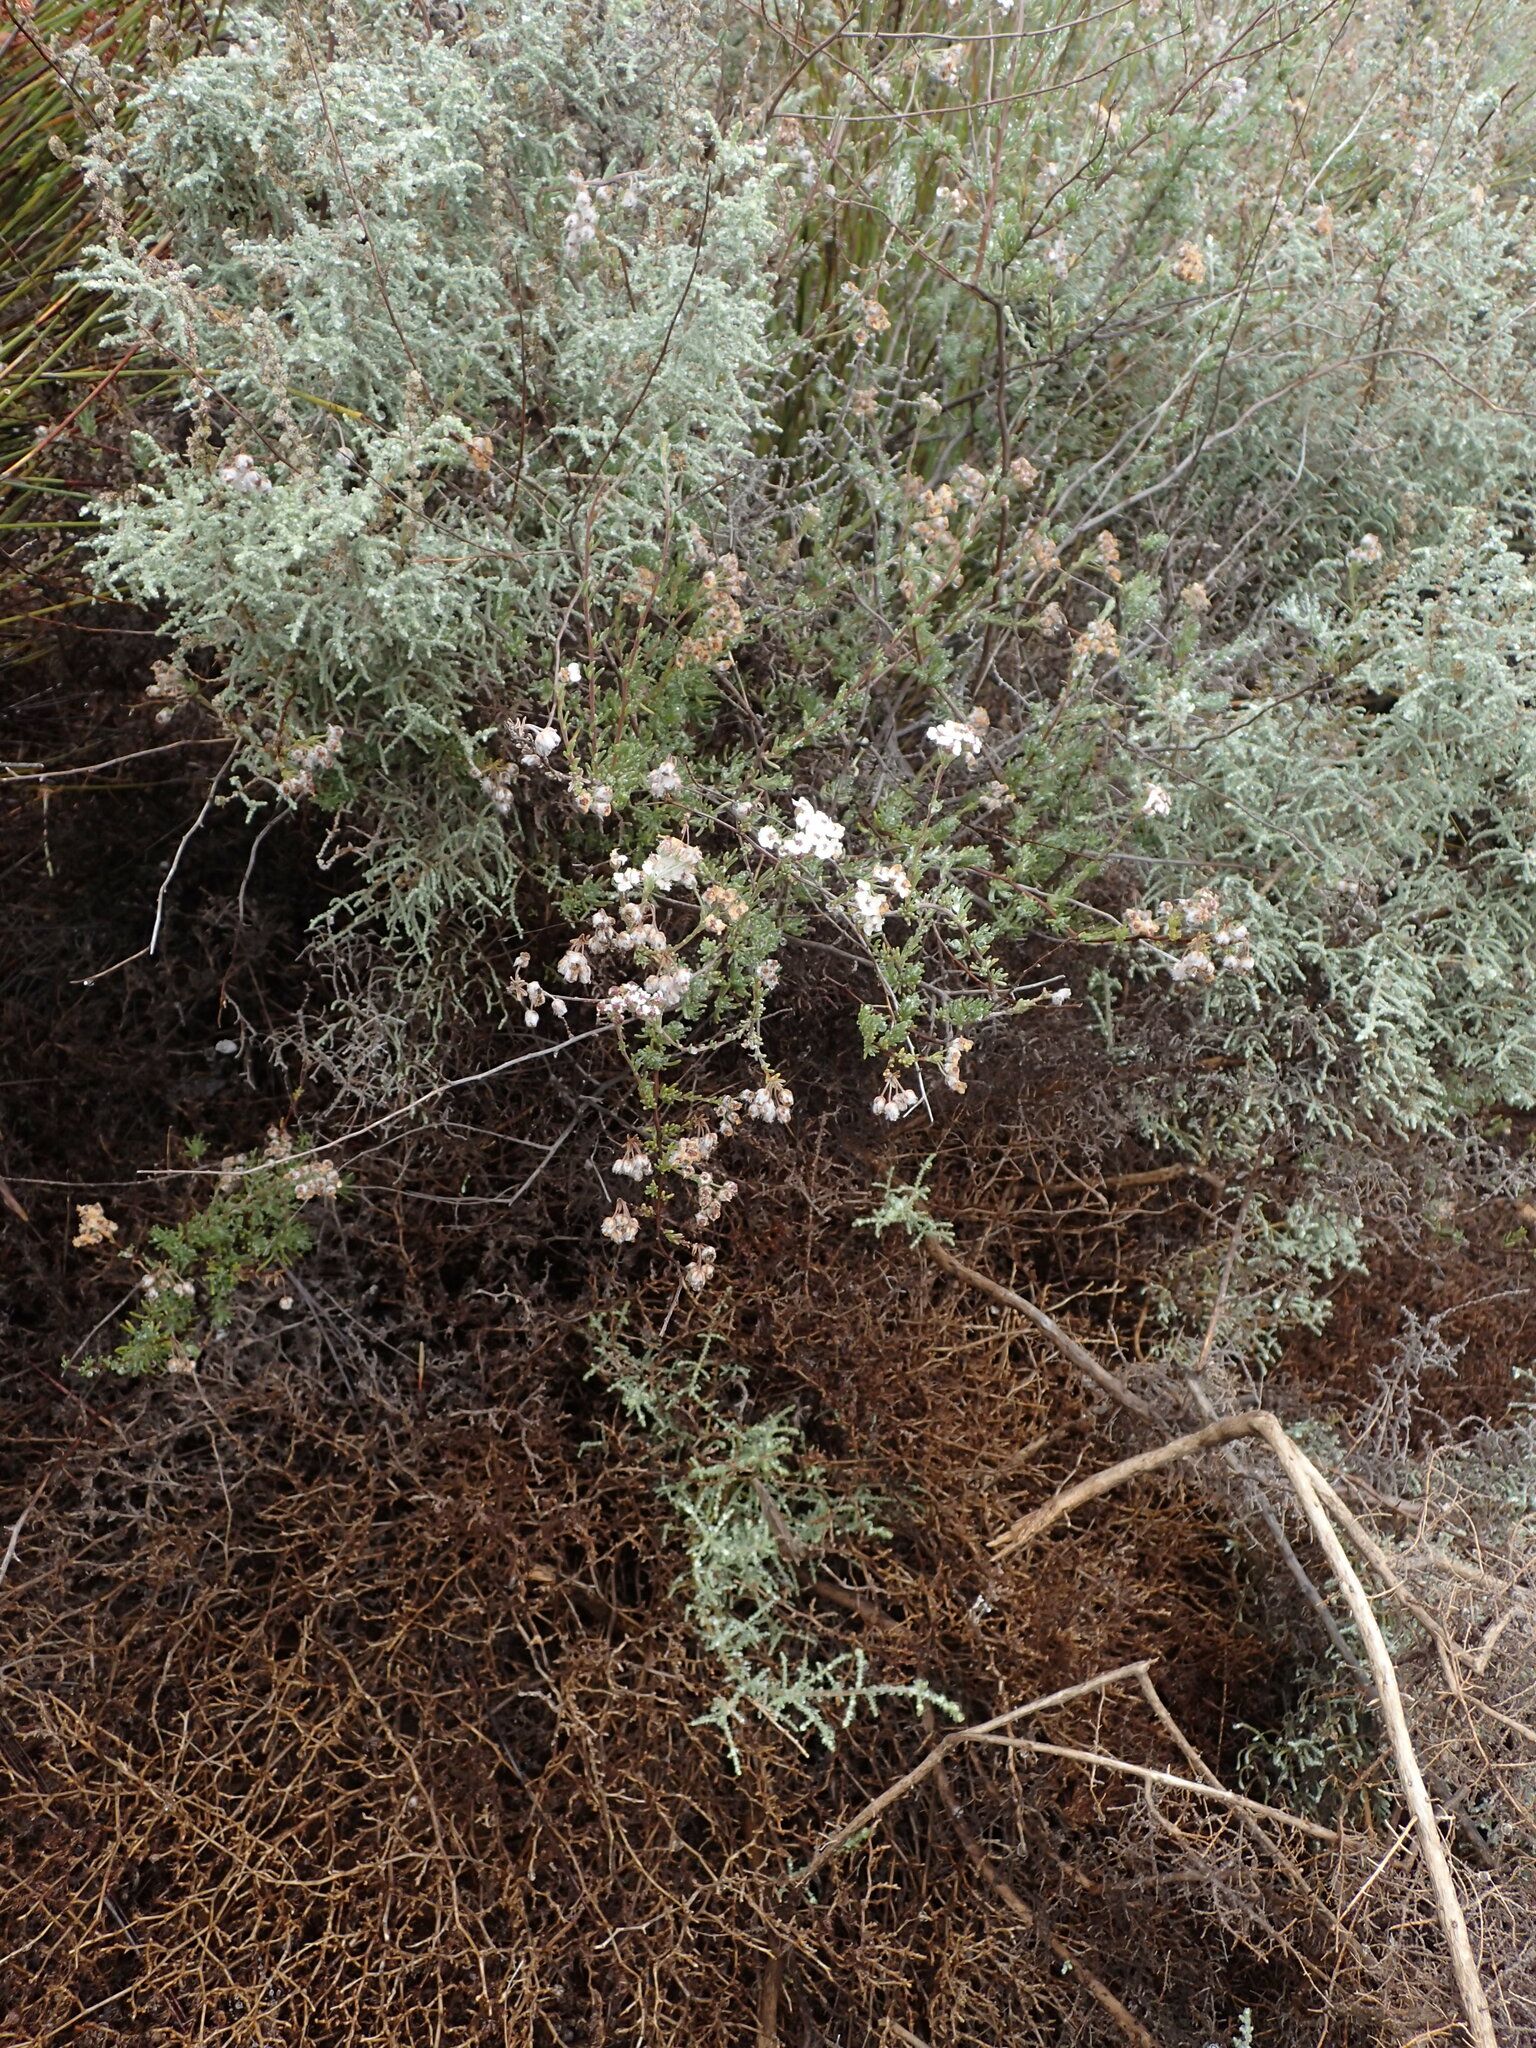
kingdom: Plantae
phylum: Tracheophyta
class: Magnoliopsida
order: Asterales
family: Asteraceae
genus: Eriocephalus
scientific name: Eriocephalus africanus
